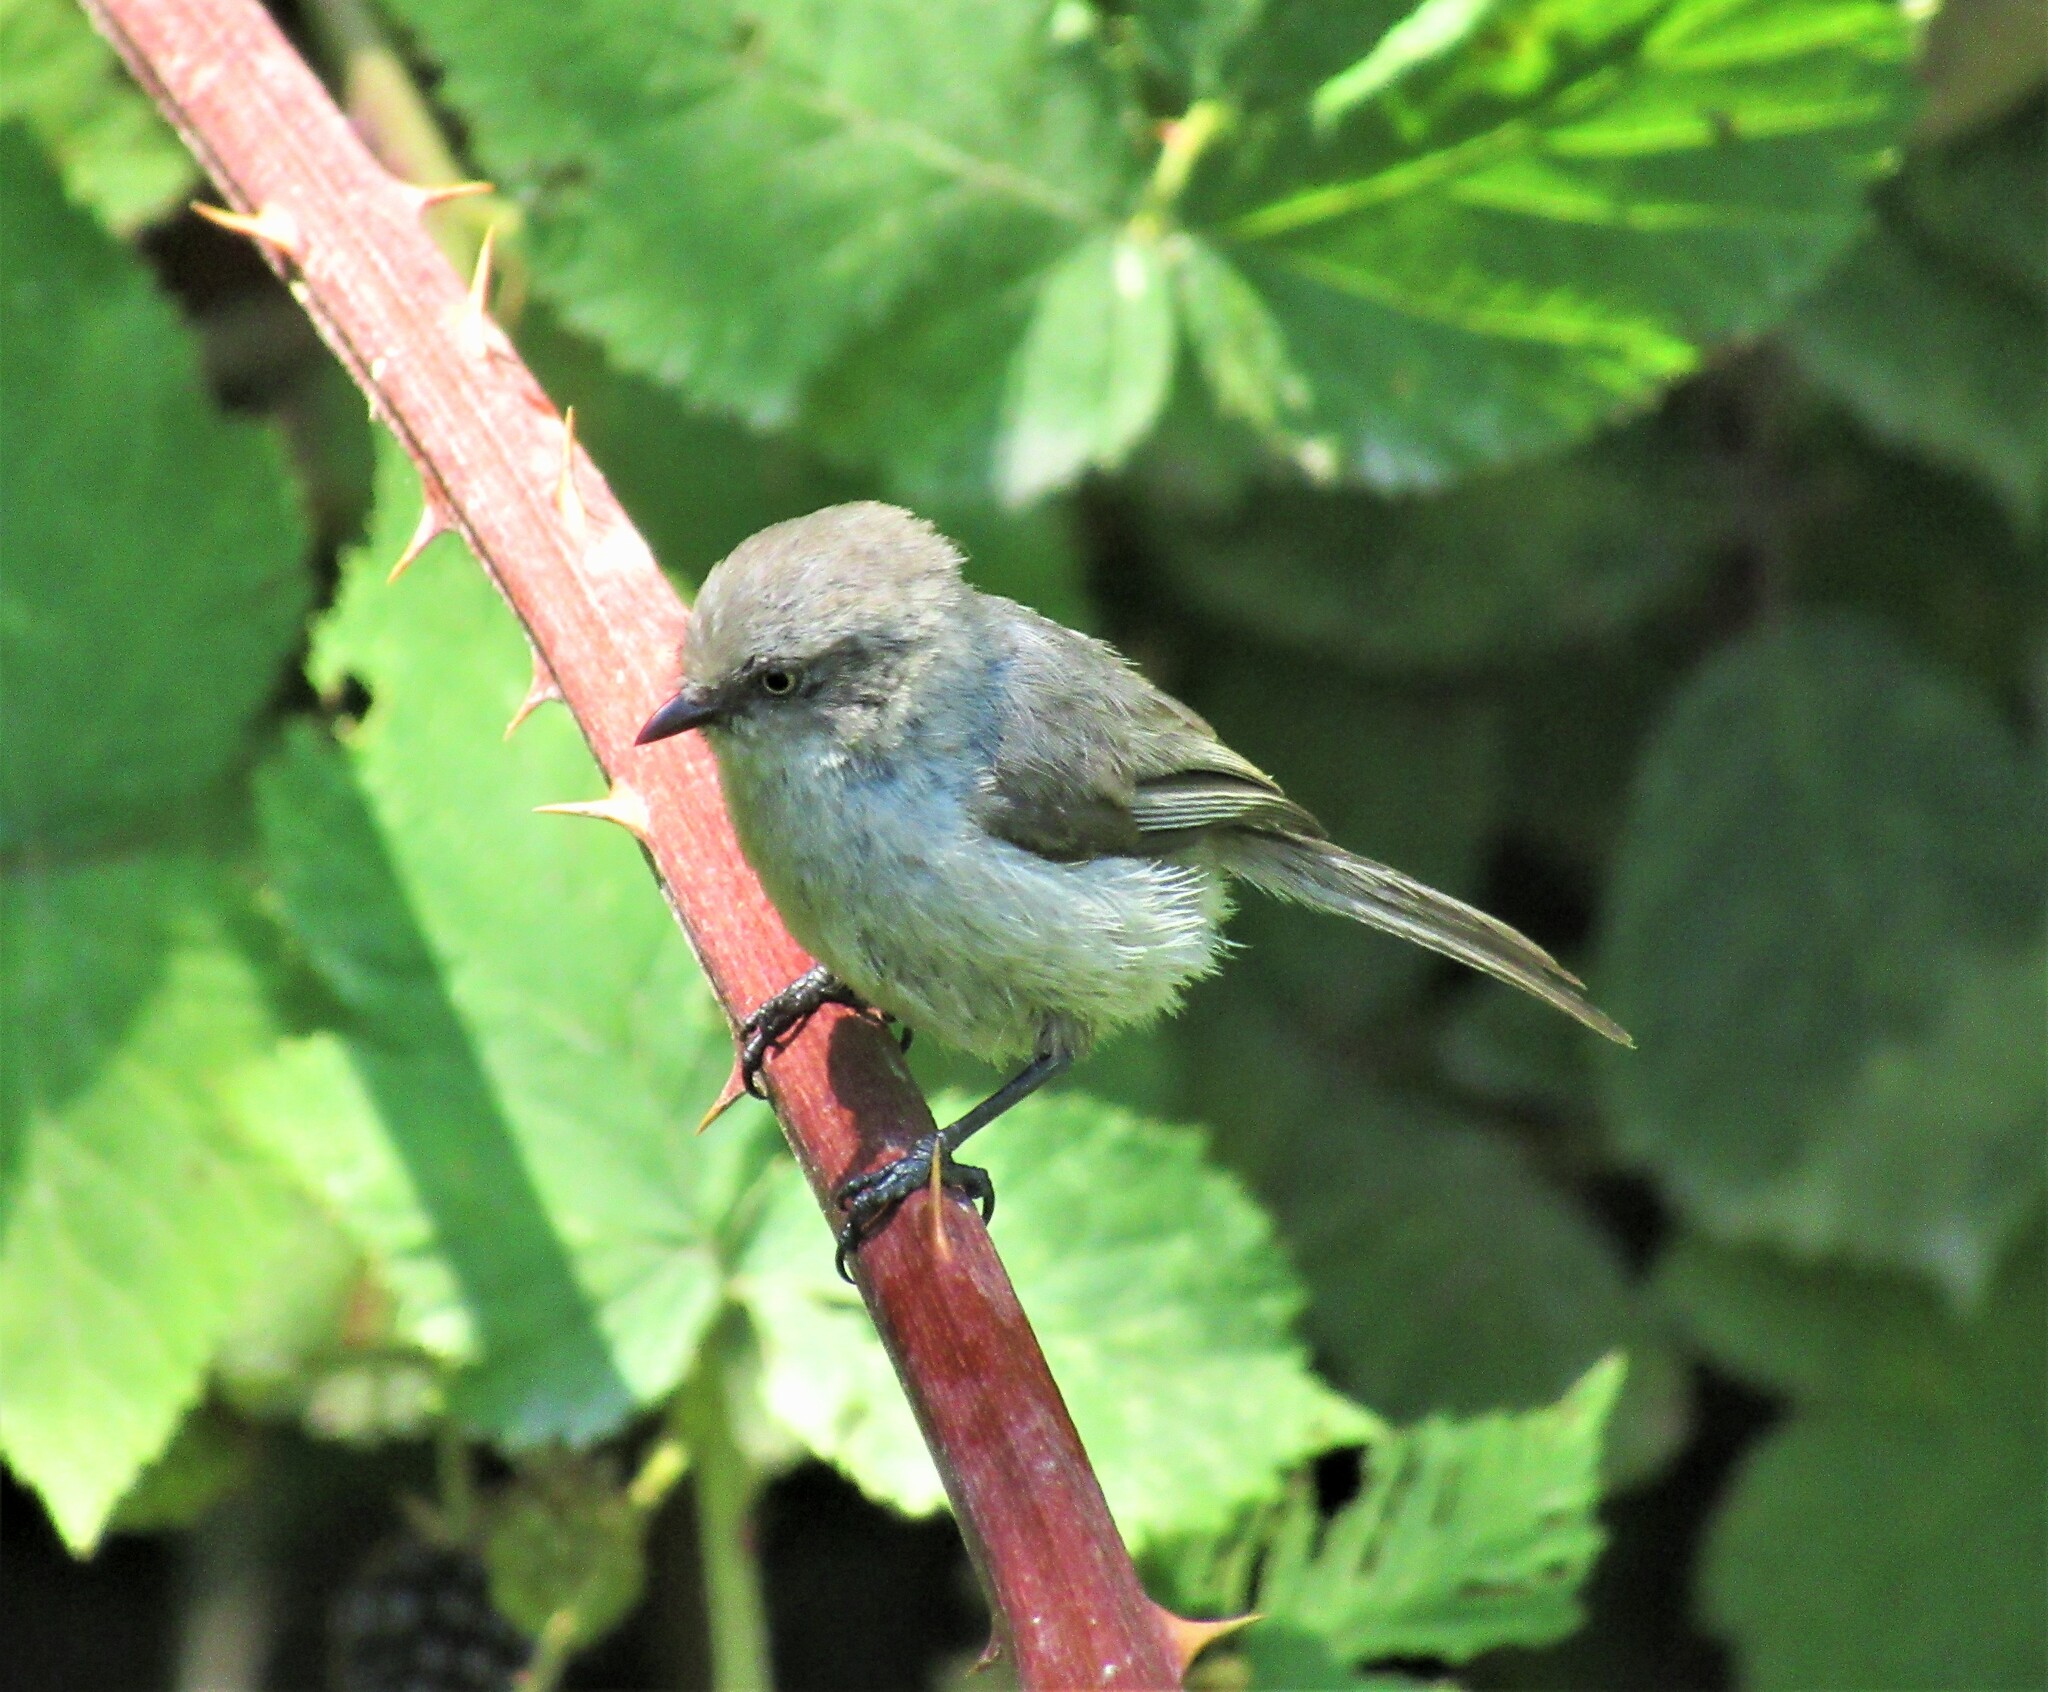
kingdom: Animalia
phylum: Chordata
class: Aves
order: Passeriformes
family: Aegithalidae
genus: Psaltriparus
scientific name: Psaltriparus minimus
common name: American bushtit
